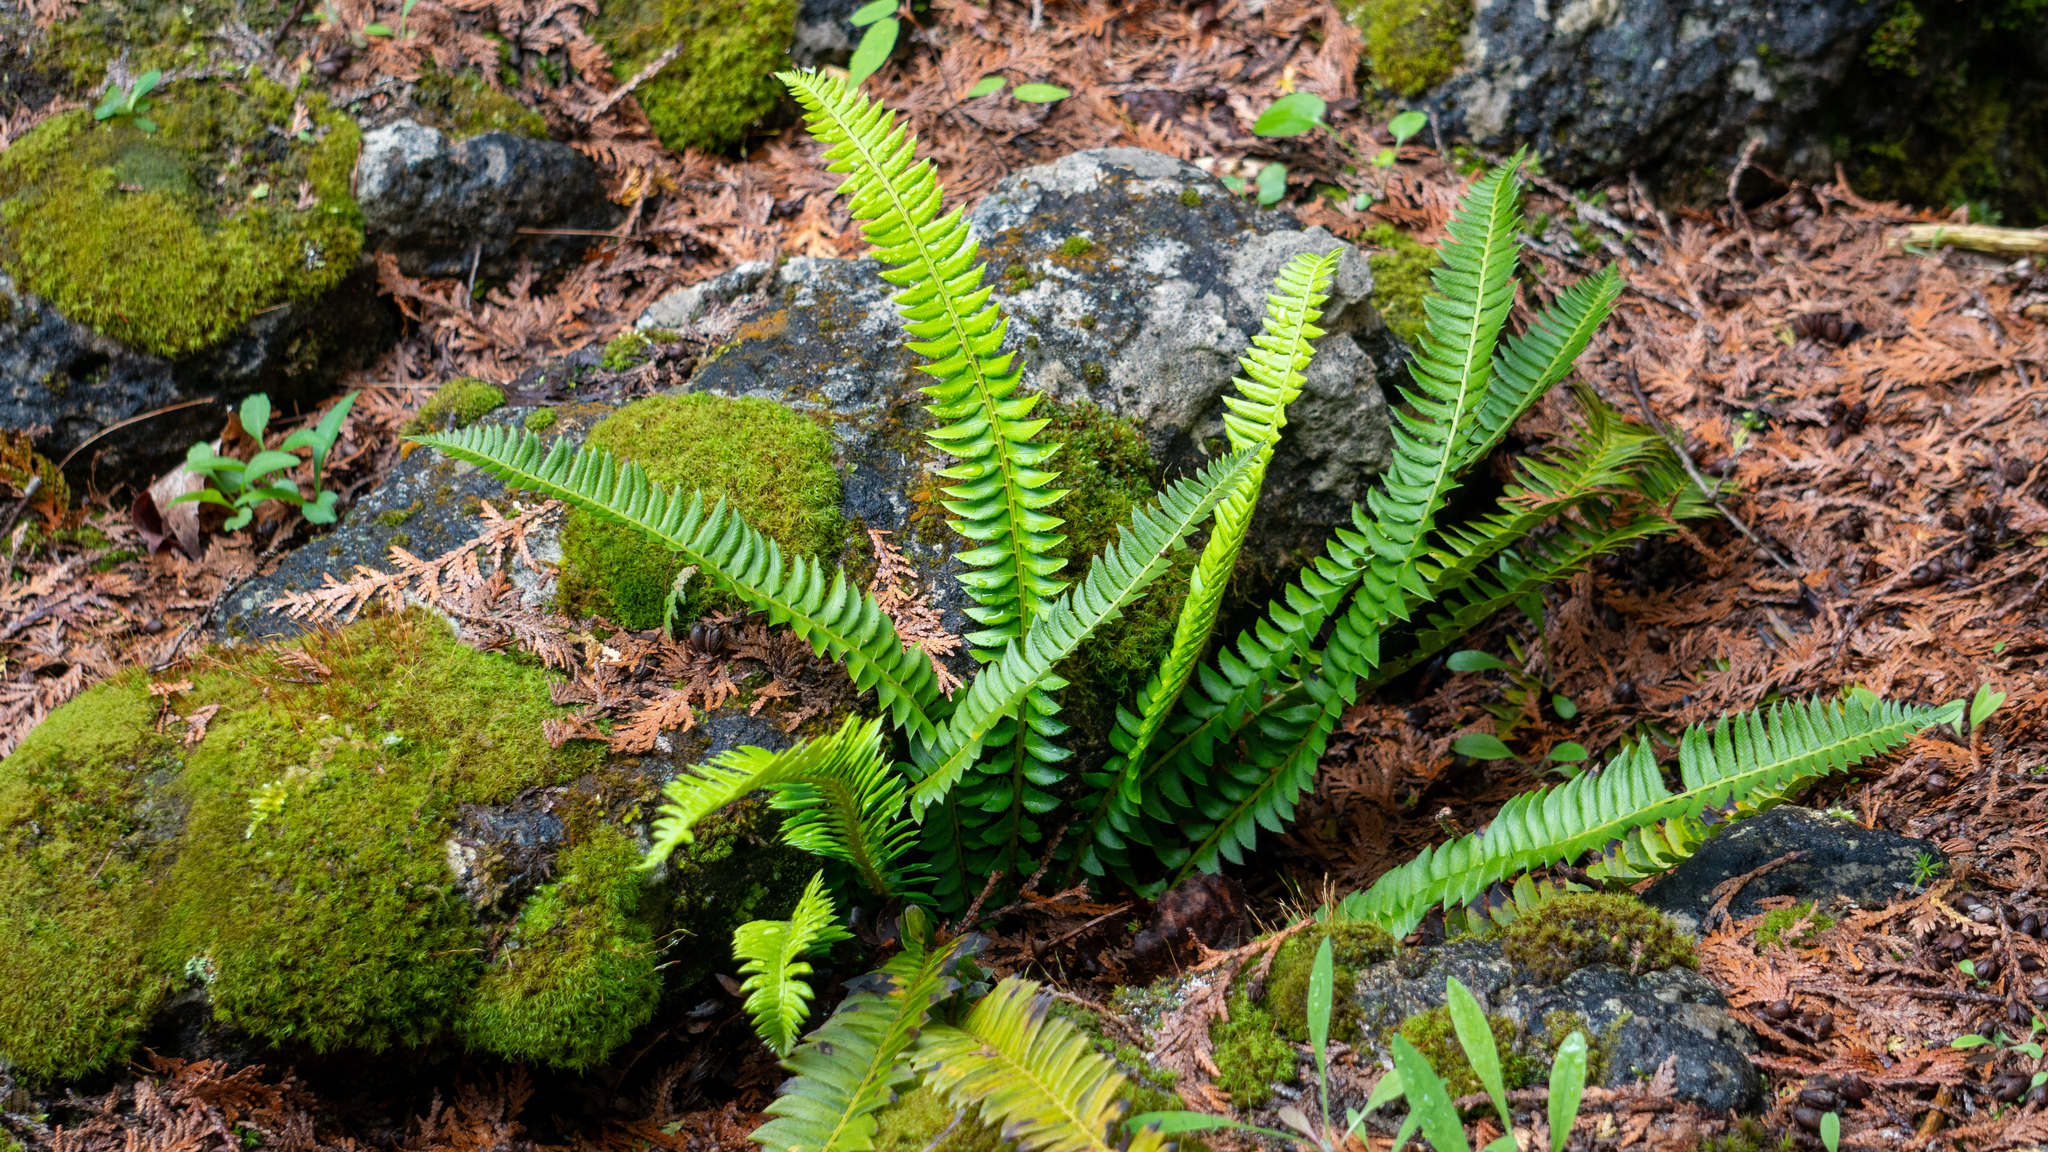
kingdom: Plantae
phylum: Tracheophyta
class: Polypodiopsida
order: Polypodiales
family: Dryopteridaceae
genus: Polystichum
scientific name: Polystichum lonchitis
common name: Holly fern
